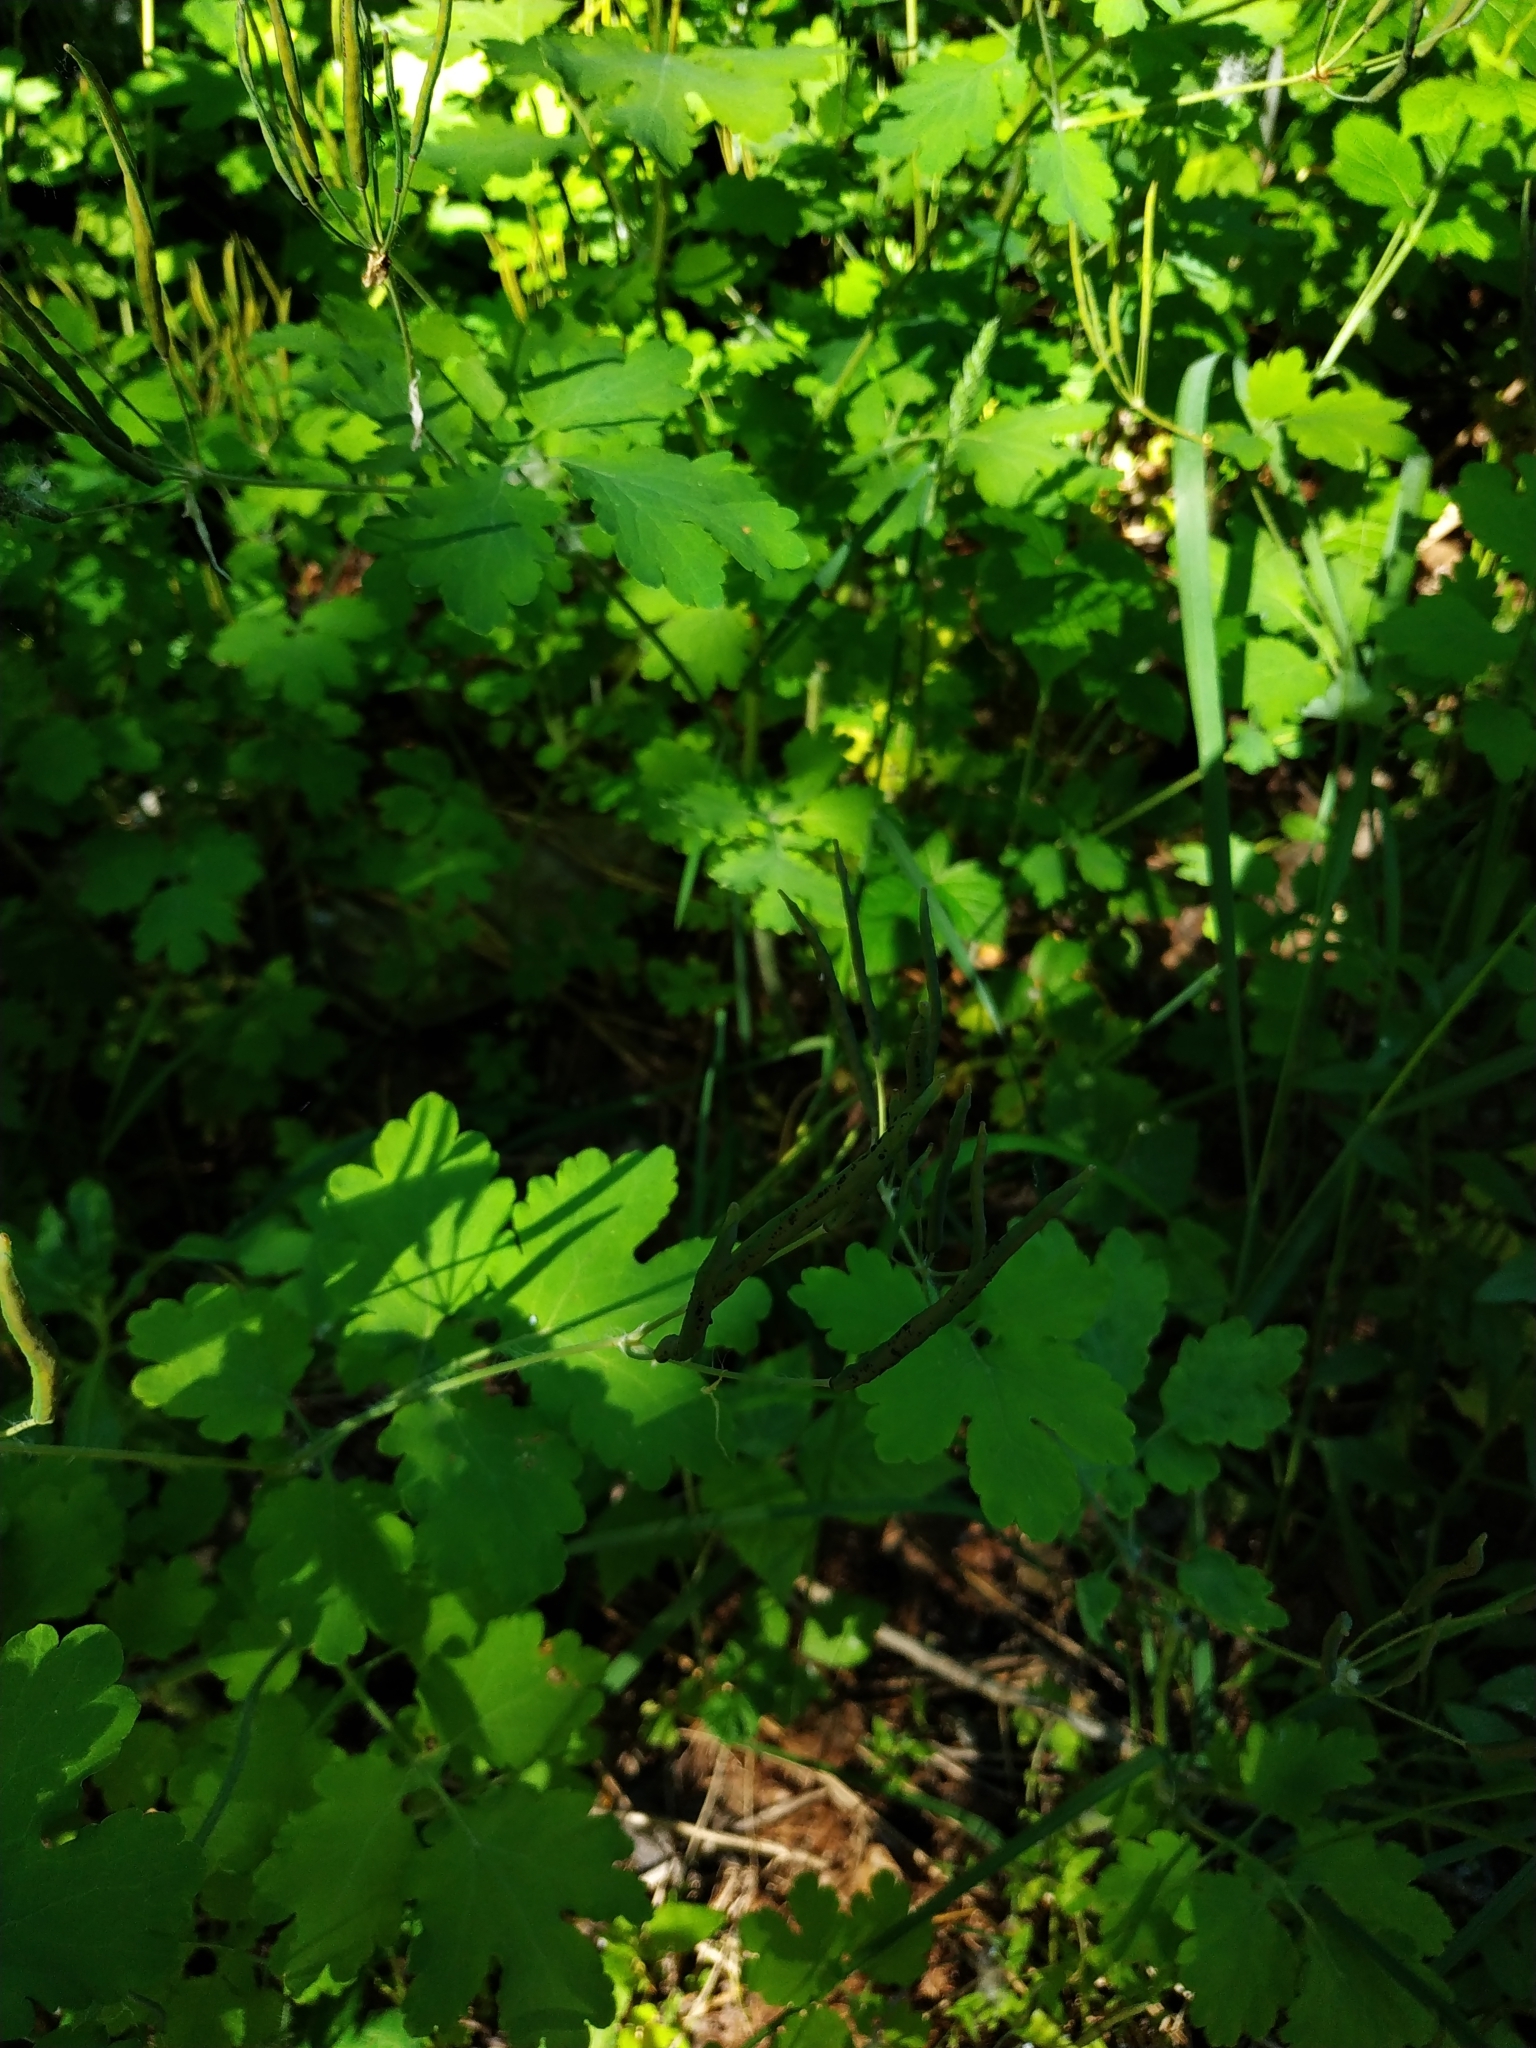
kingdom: Plantae
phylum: Tracheophyta
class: Magnoliopsida
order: Ranunculales
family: Papaveraceae
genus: Chelidonium
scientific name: Chelidonium majus
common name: Greater celandine
